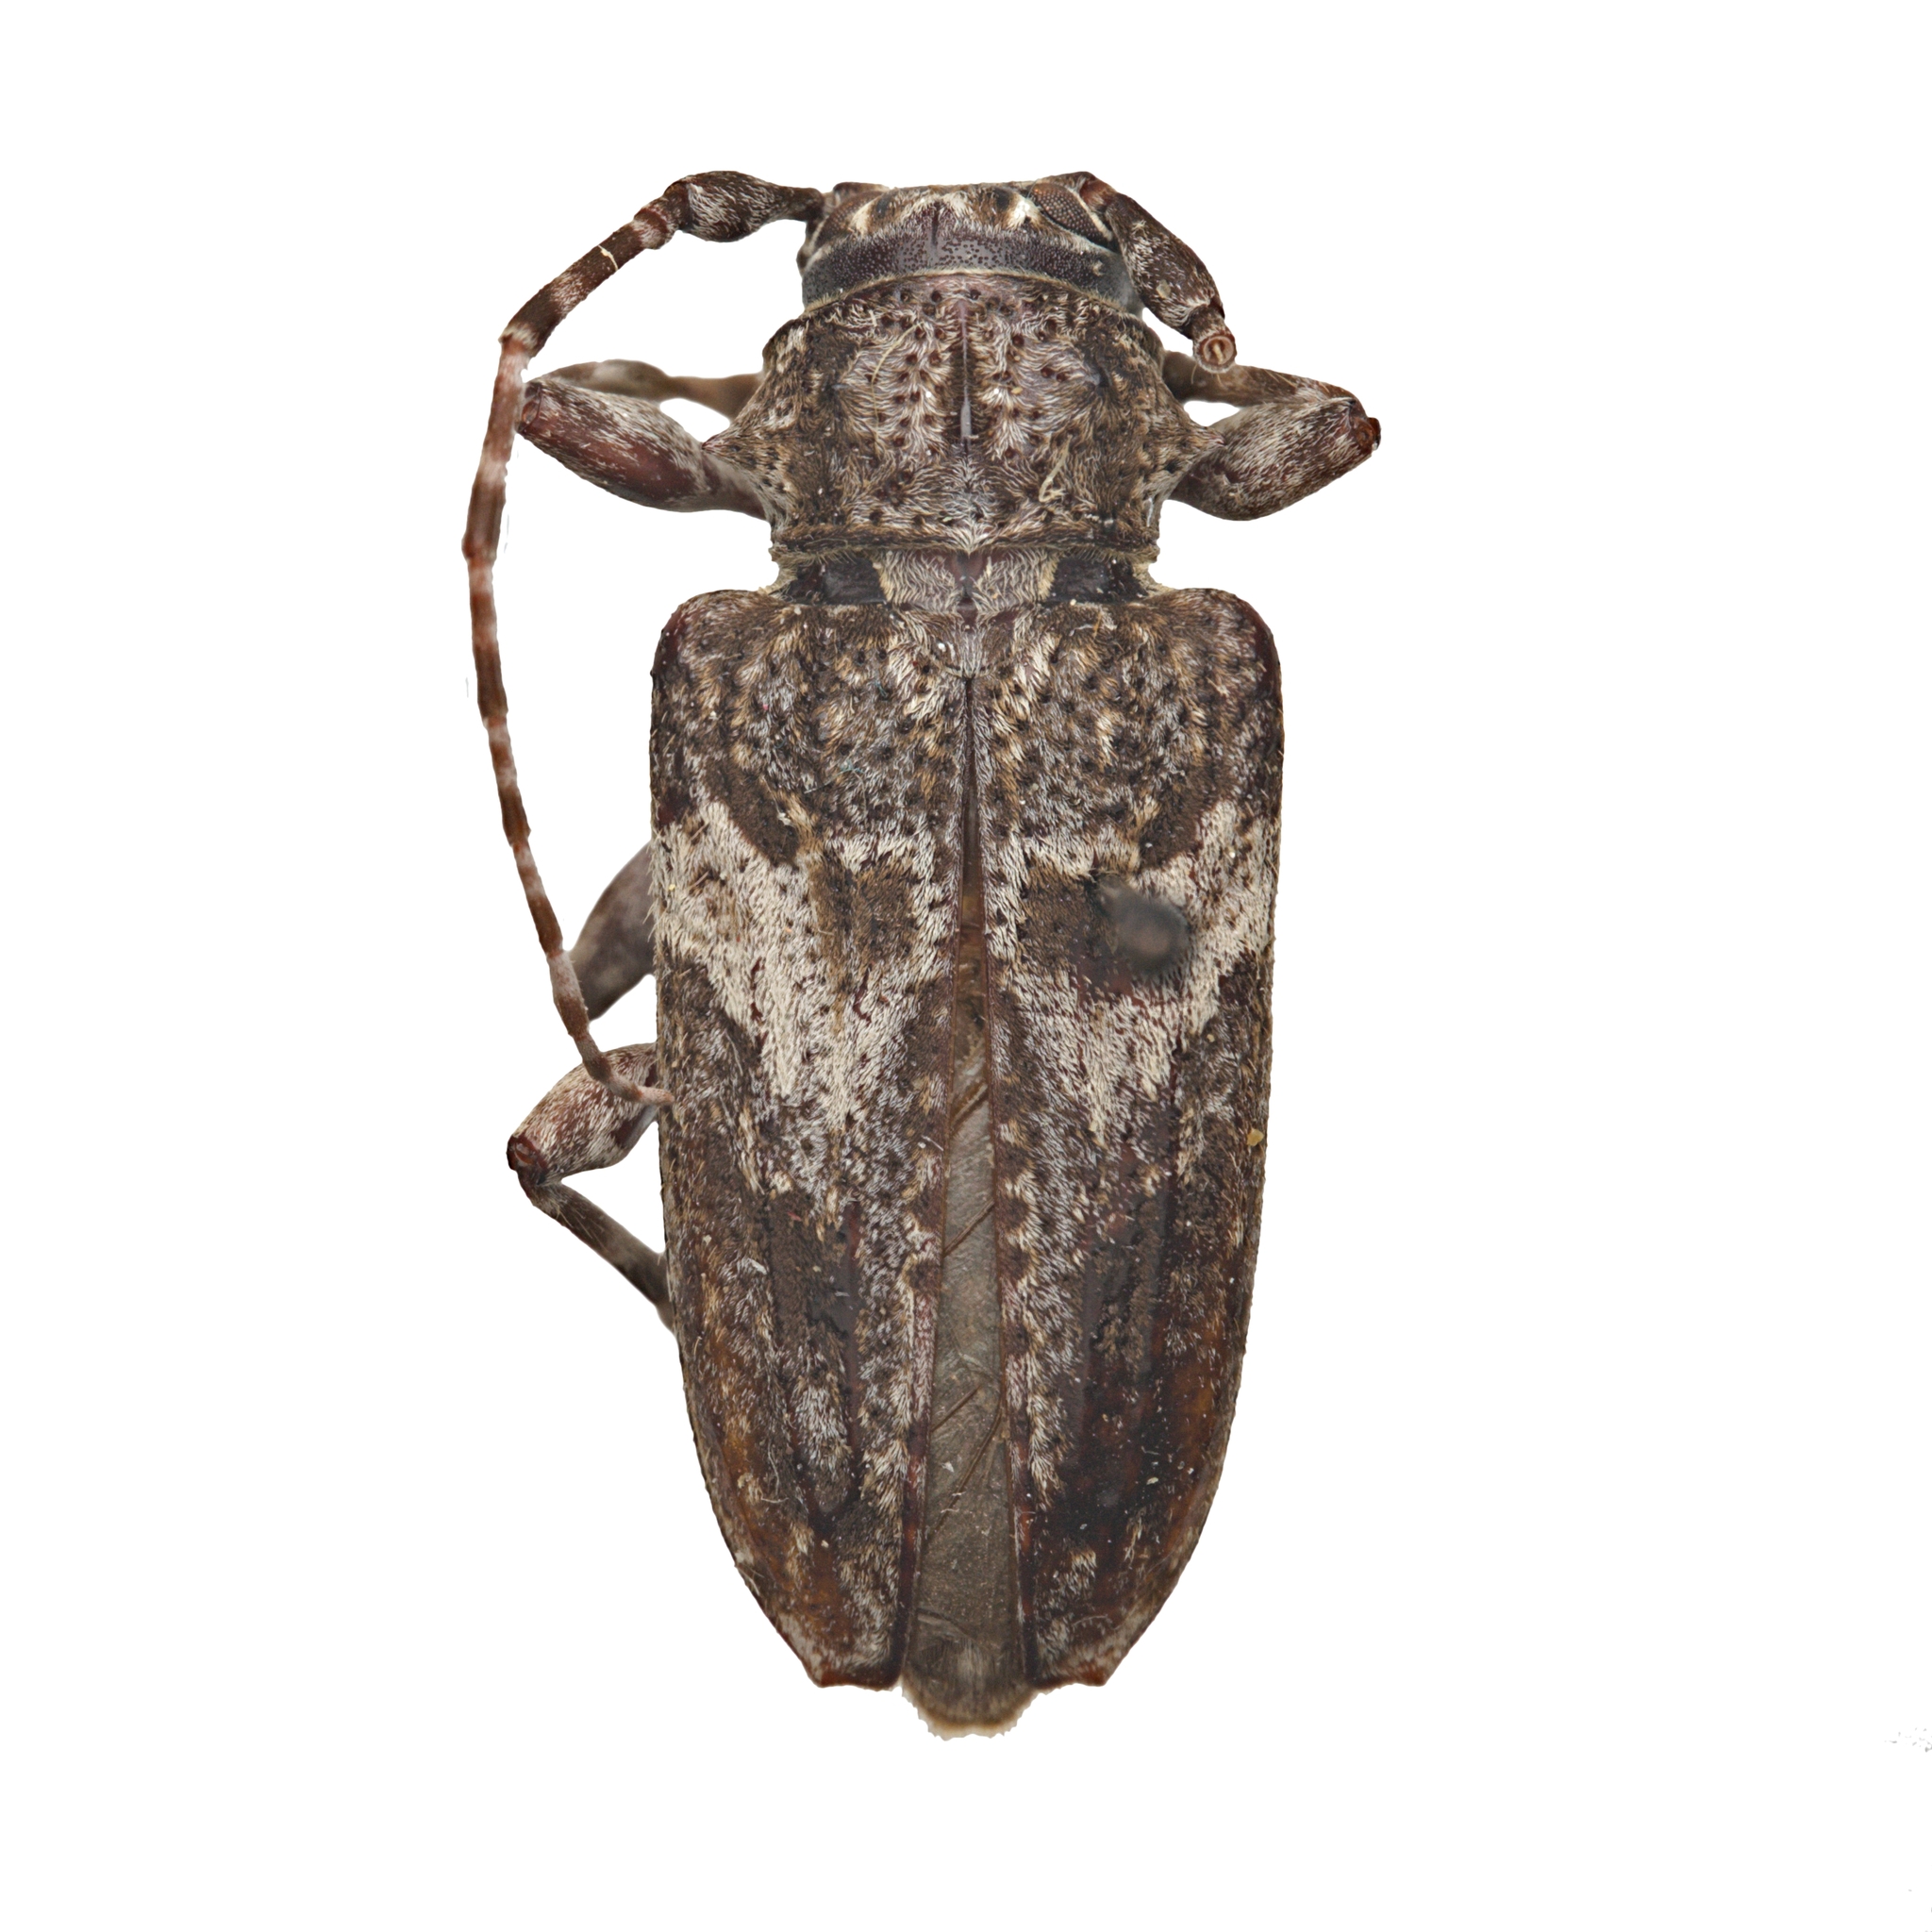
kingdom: Animalia
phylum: Arthropoda
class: Insecta
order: Coleoptera
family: Cerambycidae
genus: Aegomorphus
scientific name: Aegomorphus arizonicus
